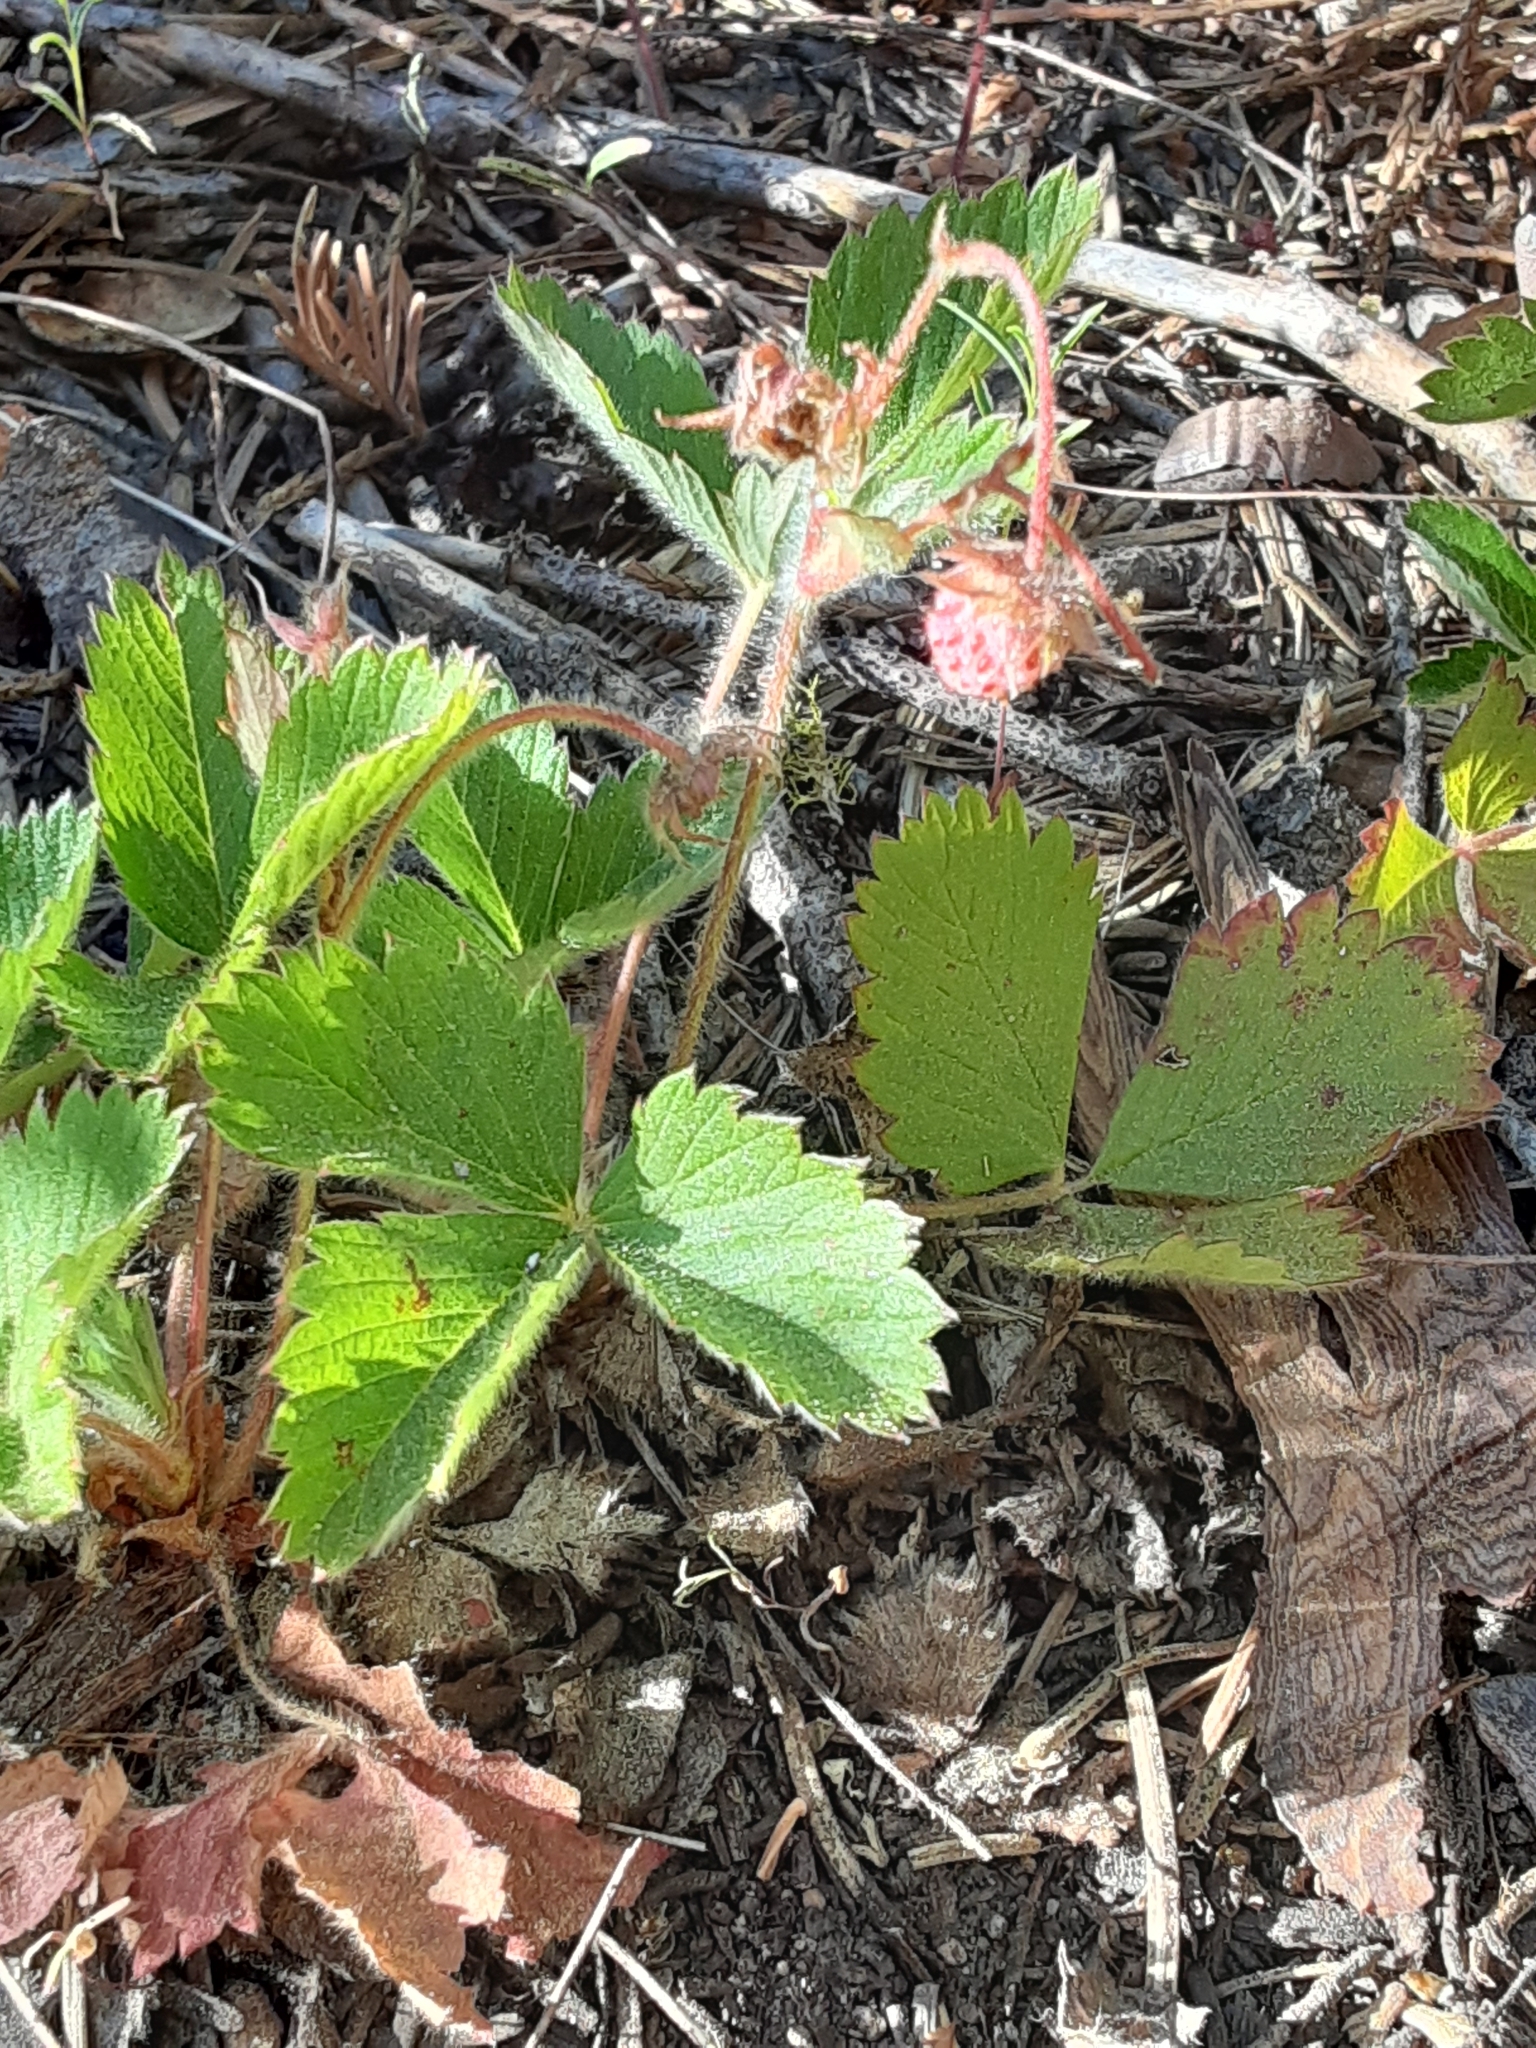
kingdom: Plantae
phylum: Tracheophyta
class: Magnoliopsida
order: Rosales
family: Rosaceae
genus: Fragaria
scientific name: Fragaria vesca
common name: Wild strawberry
